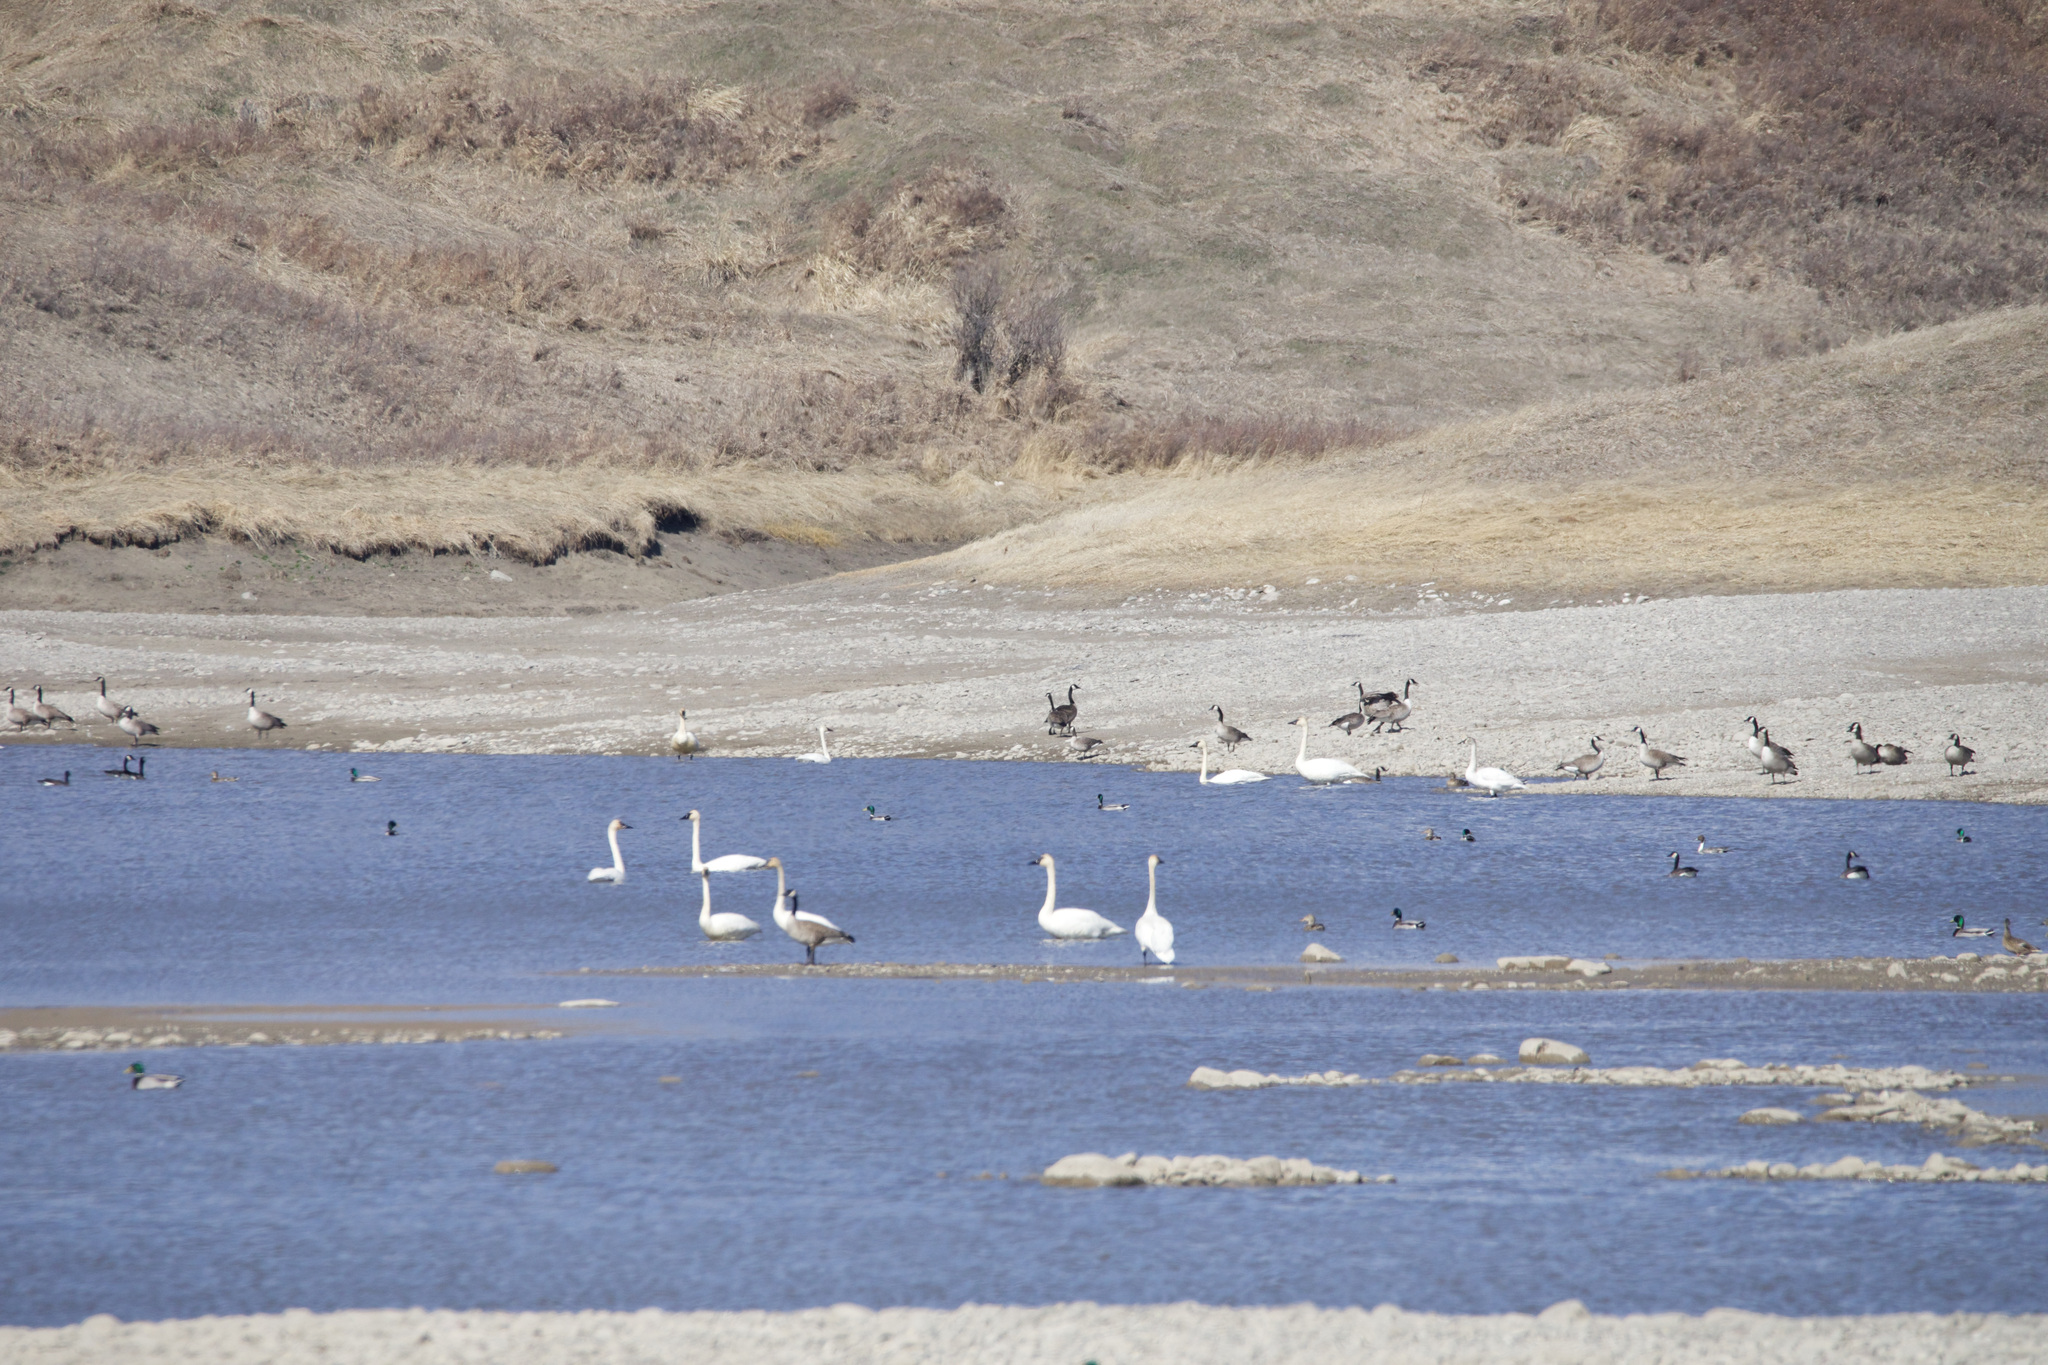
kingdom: Animalia
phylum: Chordata
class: Aves
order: Anseriformes
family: Anatidae
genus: Cygnus
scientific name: Cygnus buccinator
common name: Trumpeter swan
